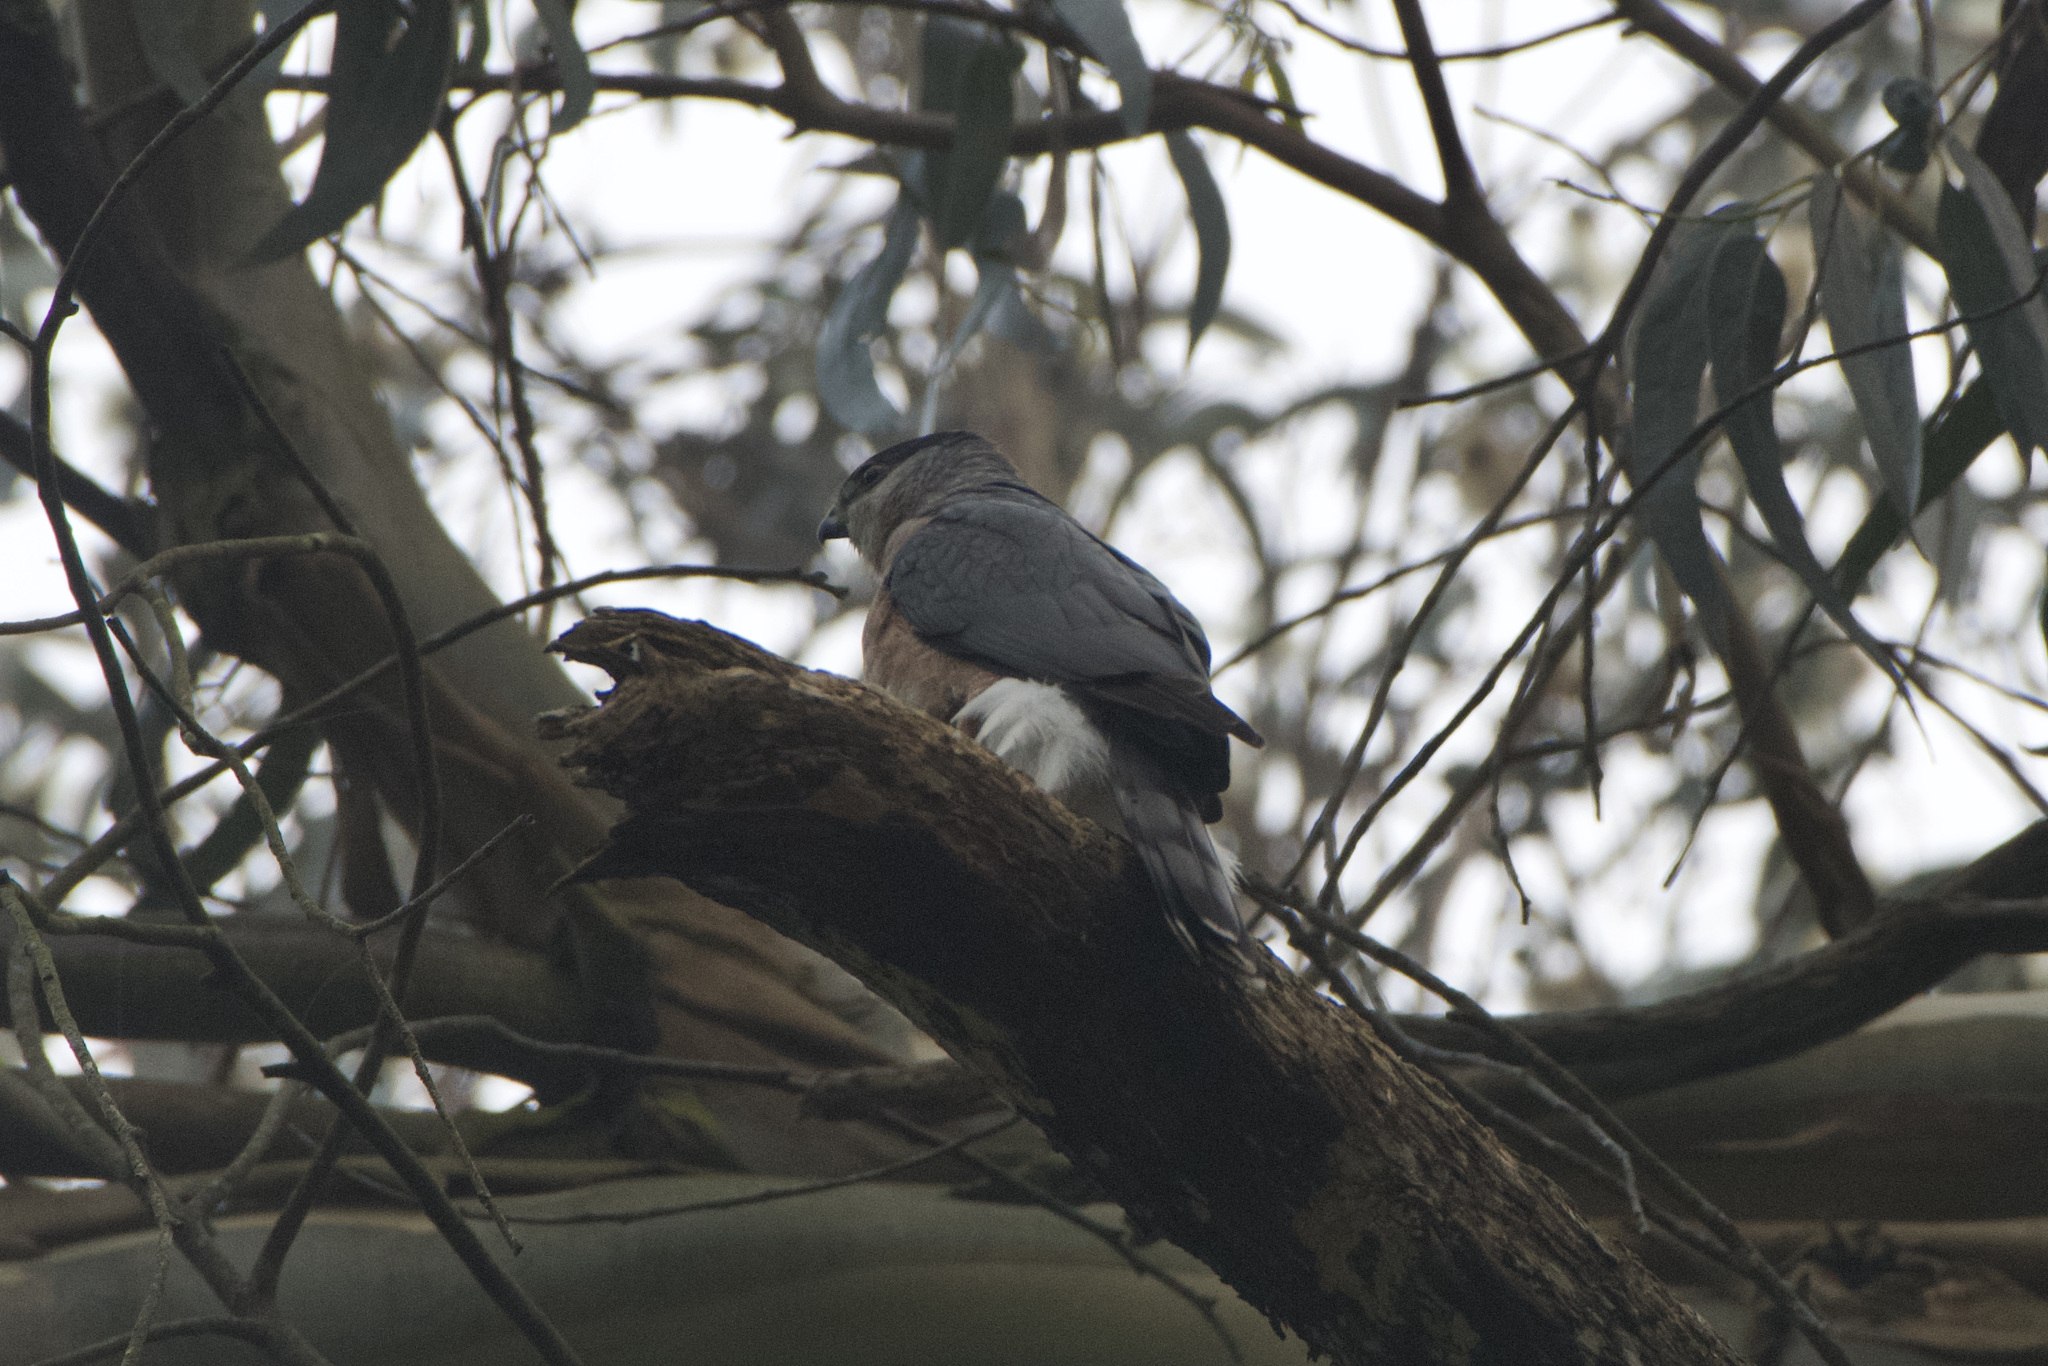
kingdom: Animalia
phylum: Chordata
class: Aves
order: Accipitriformes
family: Accipitridae
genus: Accipiter
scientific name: Accipiter cooperii
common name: Cooper's hawk
